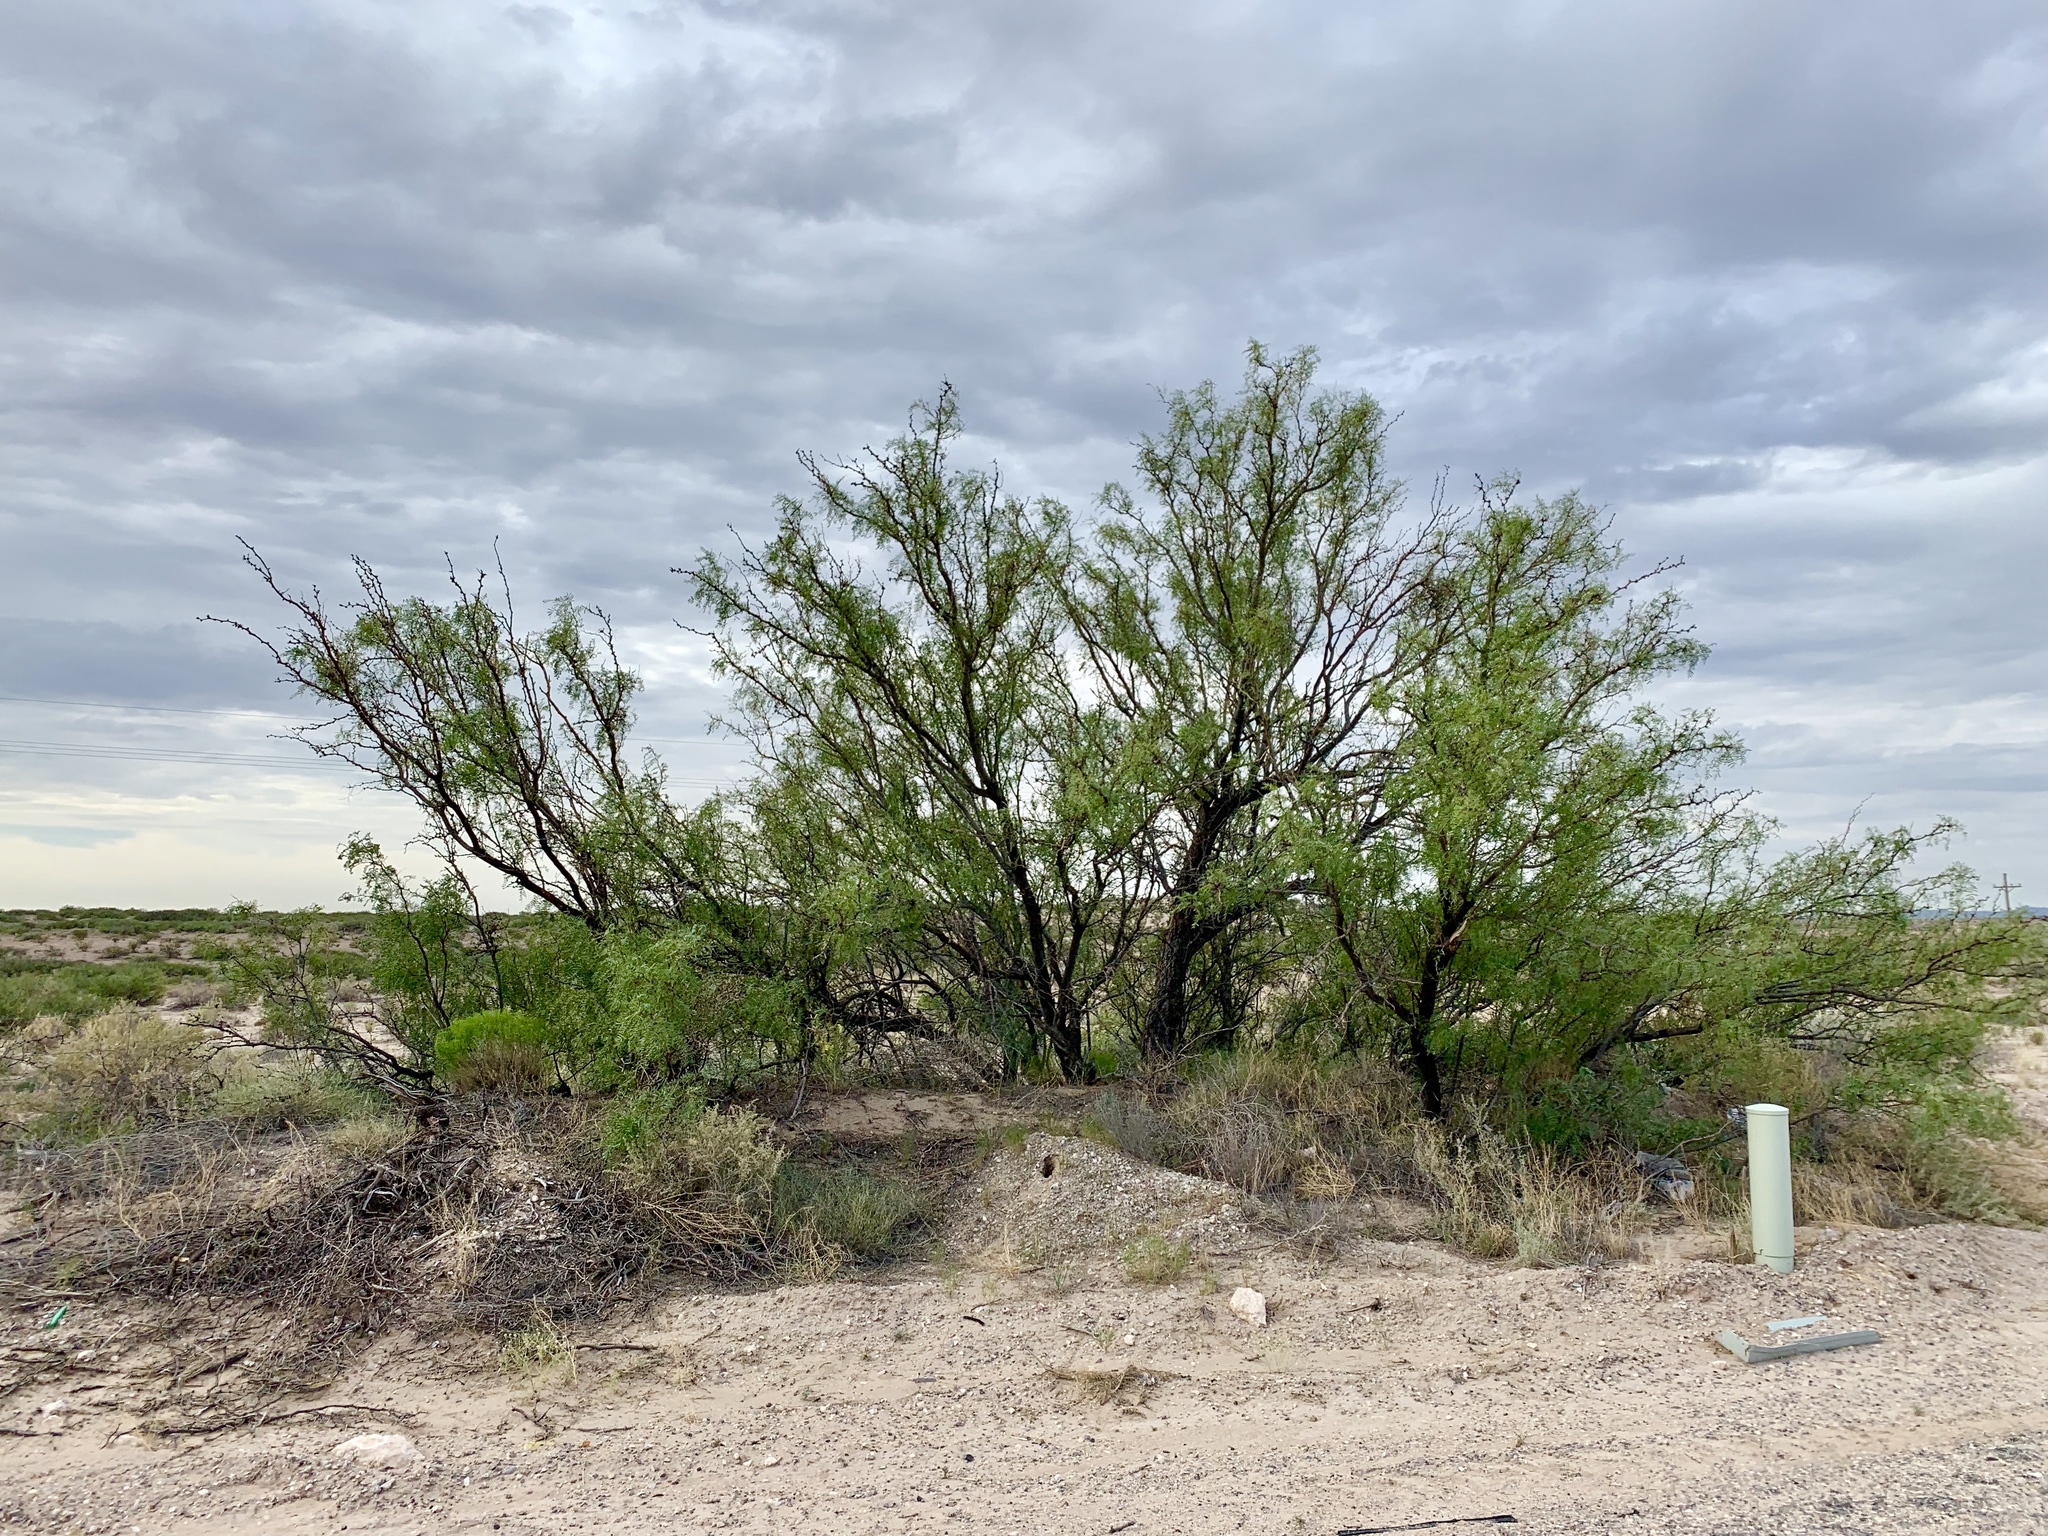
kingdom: Plantae
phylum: Tracheophyta
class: Magnoliopsida
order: Fabales
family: Fabaceae
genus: Prosopis
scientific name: Prosopis glandulosa
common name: Honey mesquite
